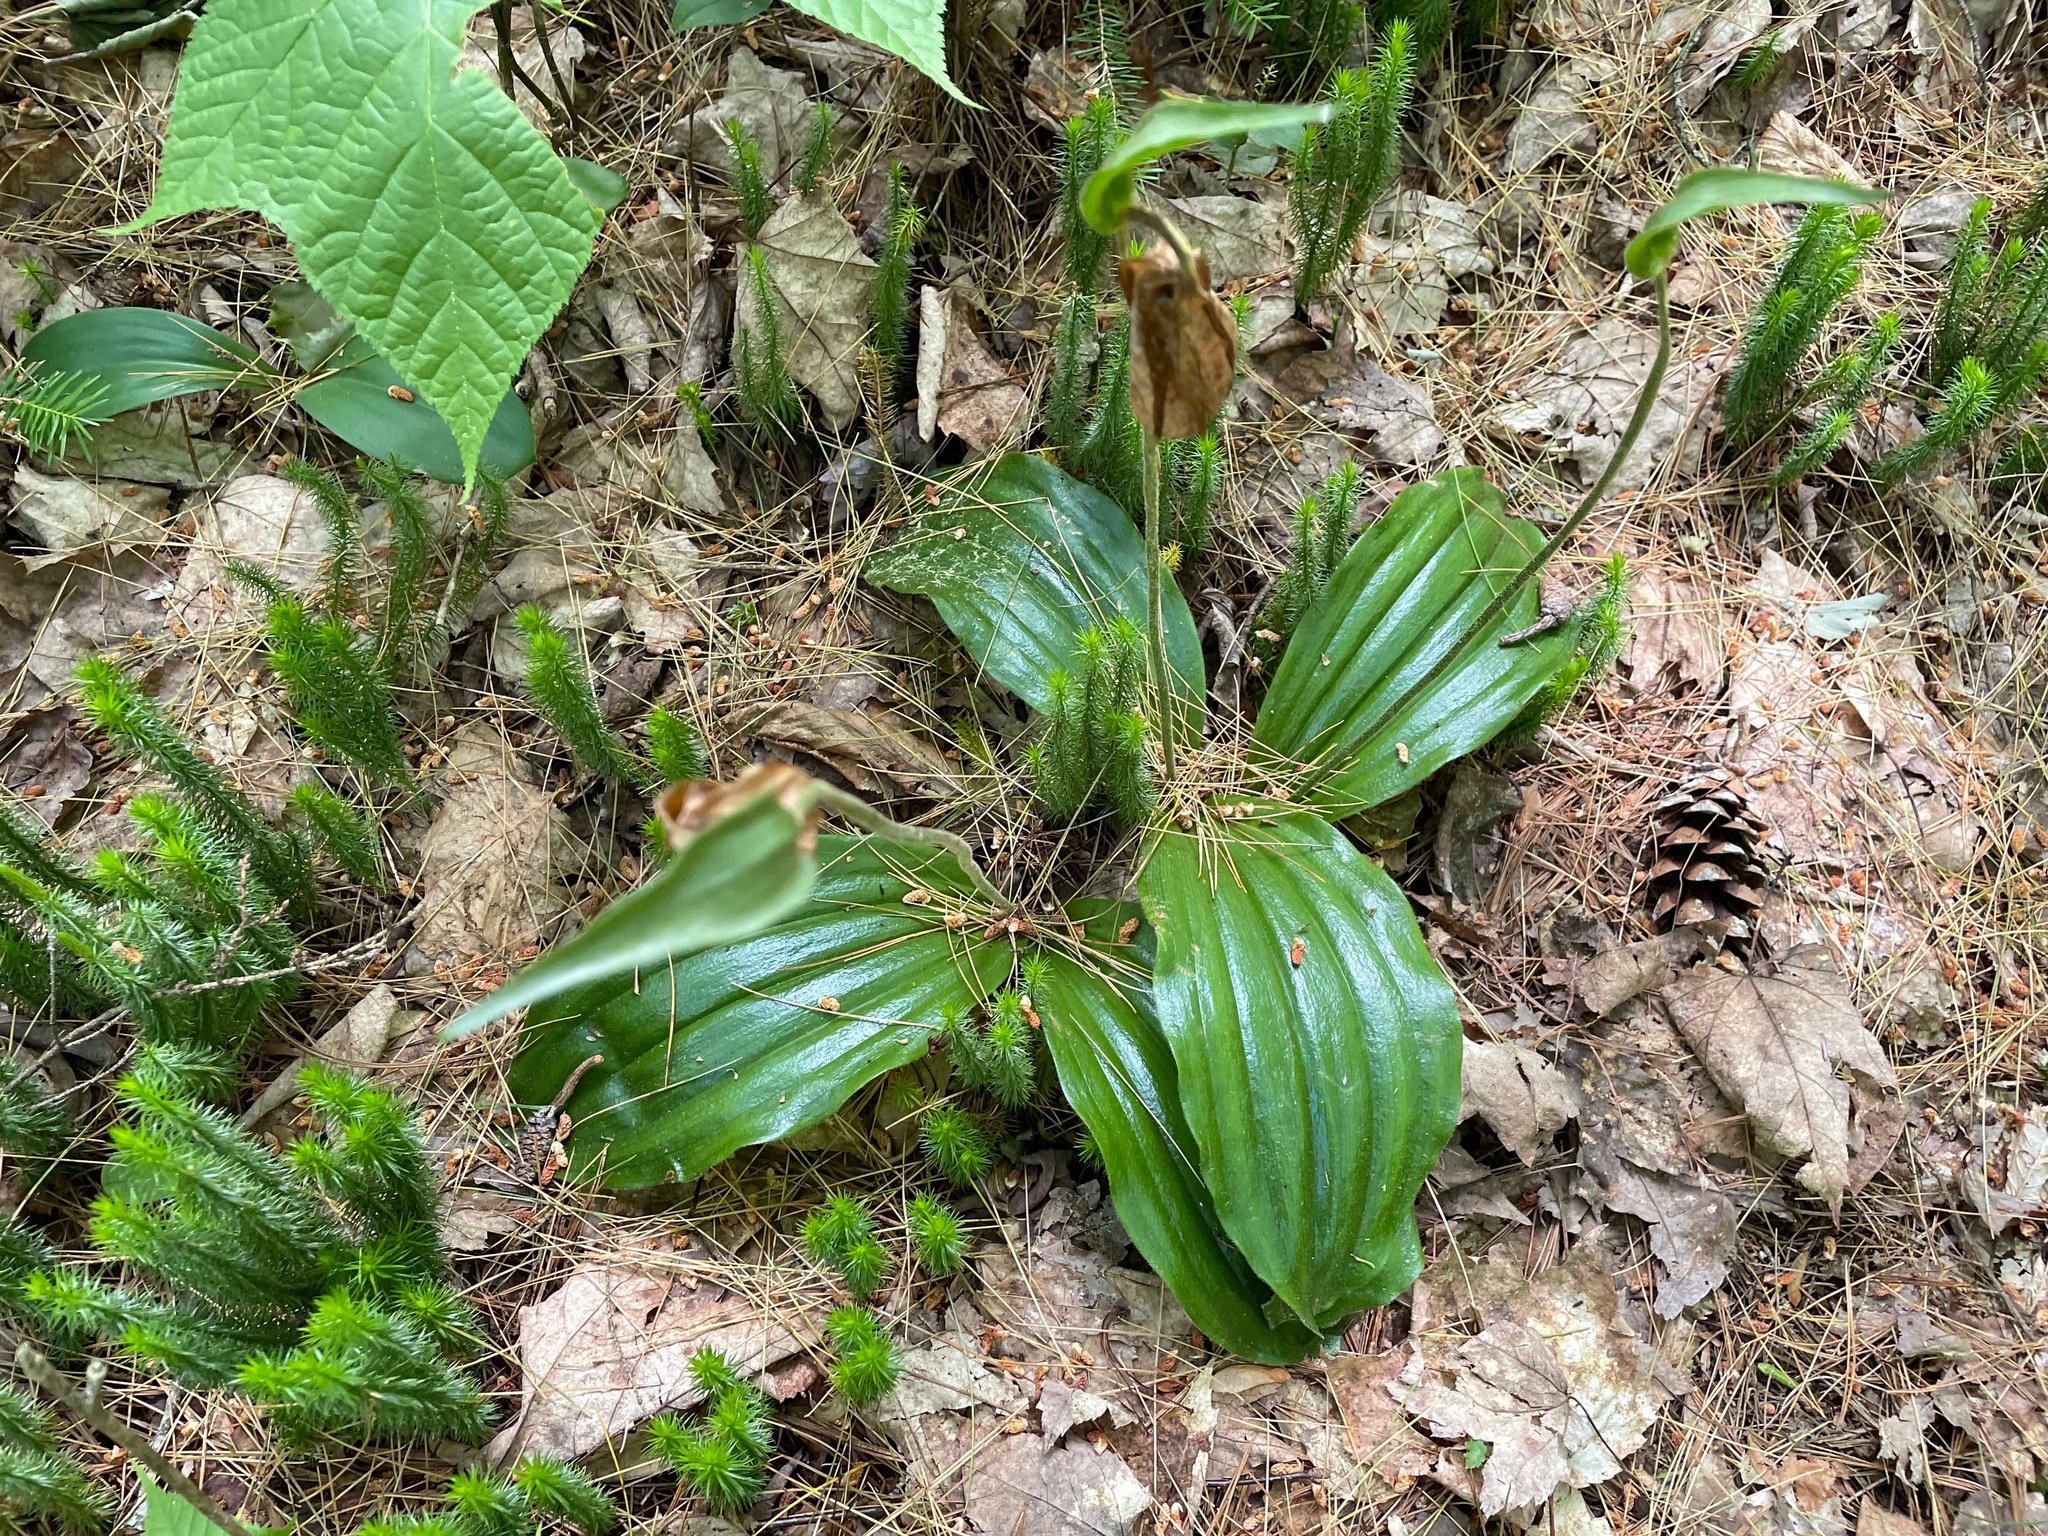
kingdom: Plantae
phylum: Tracheophyta
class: Liliopsida
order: Asparagales
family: Orchidaceae
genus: Cypripedium
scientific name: Cypripedium acaule
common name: Pink lady's-slipper
